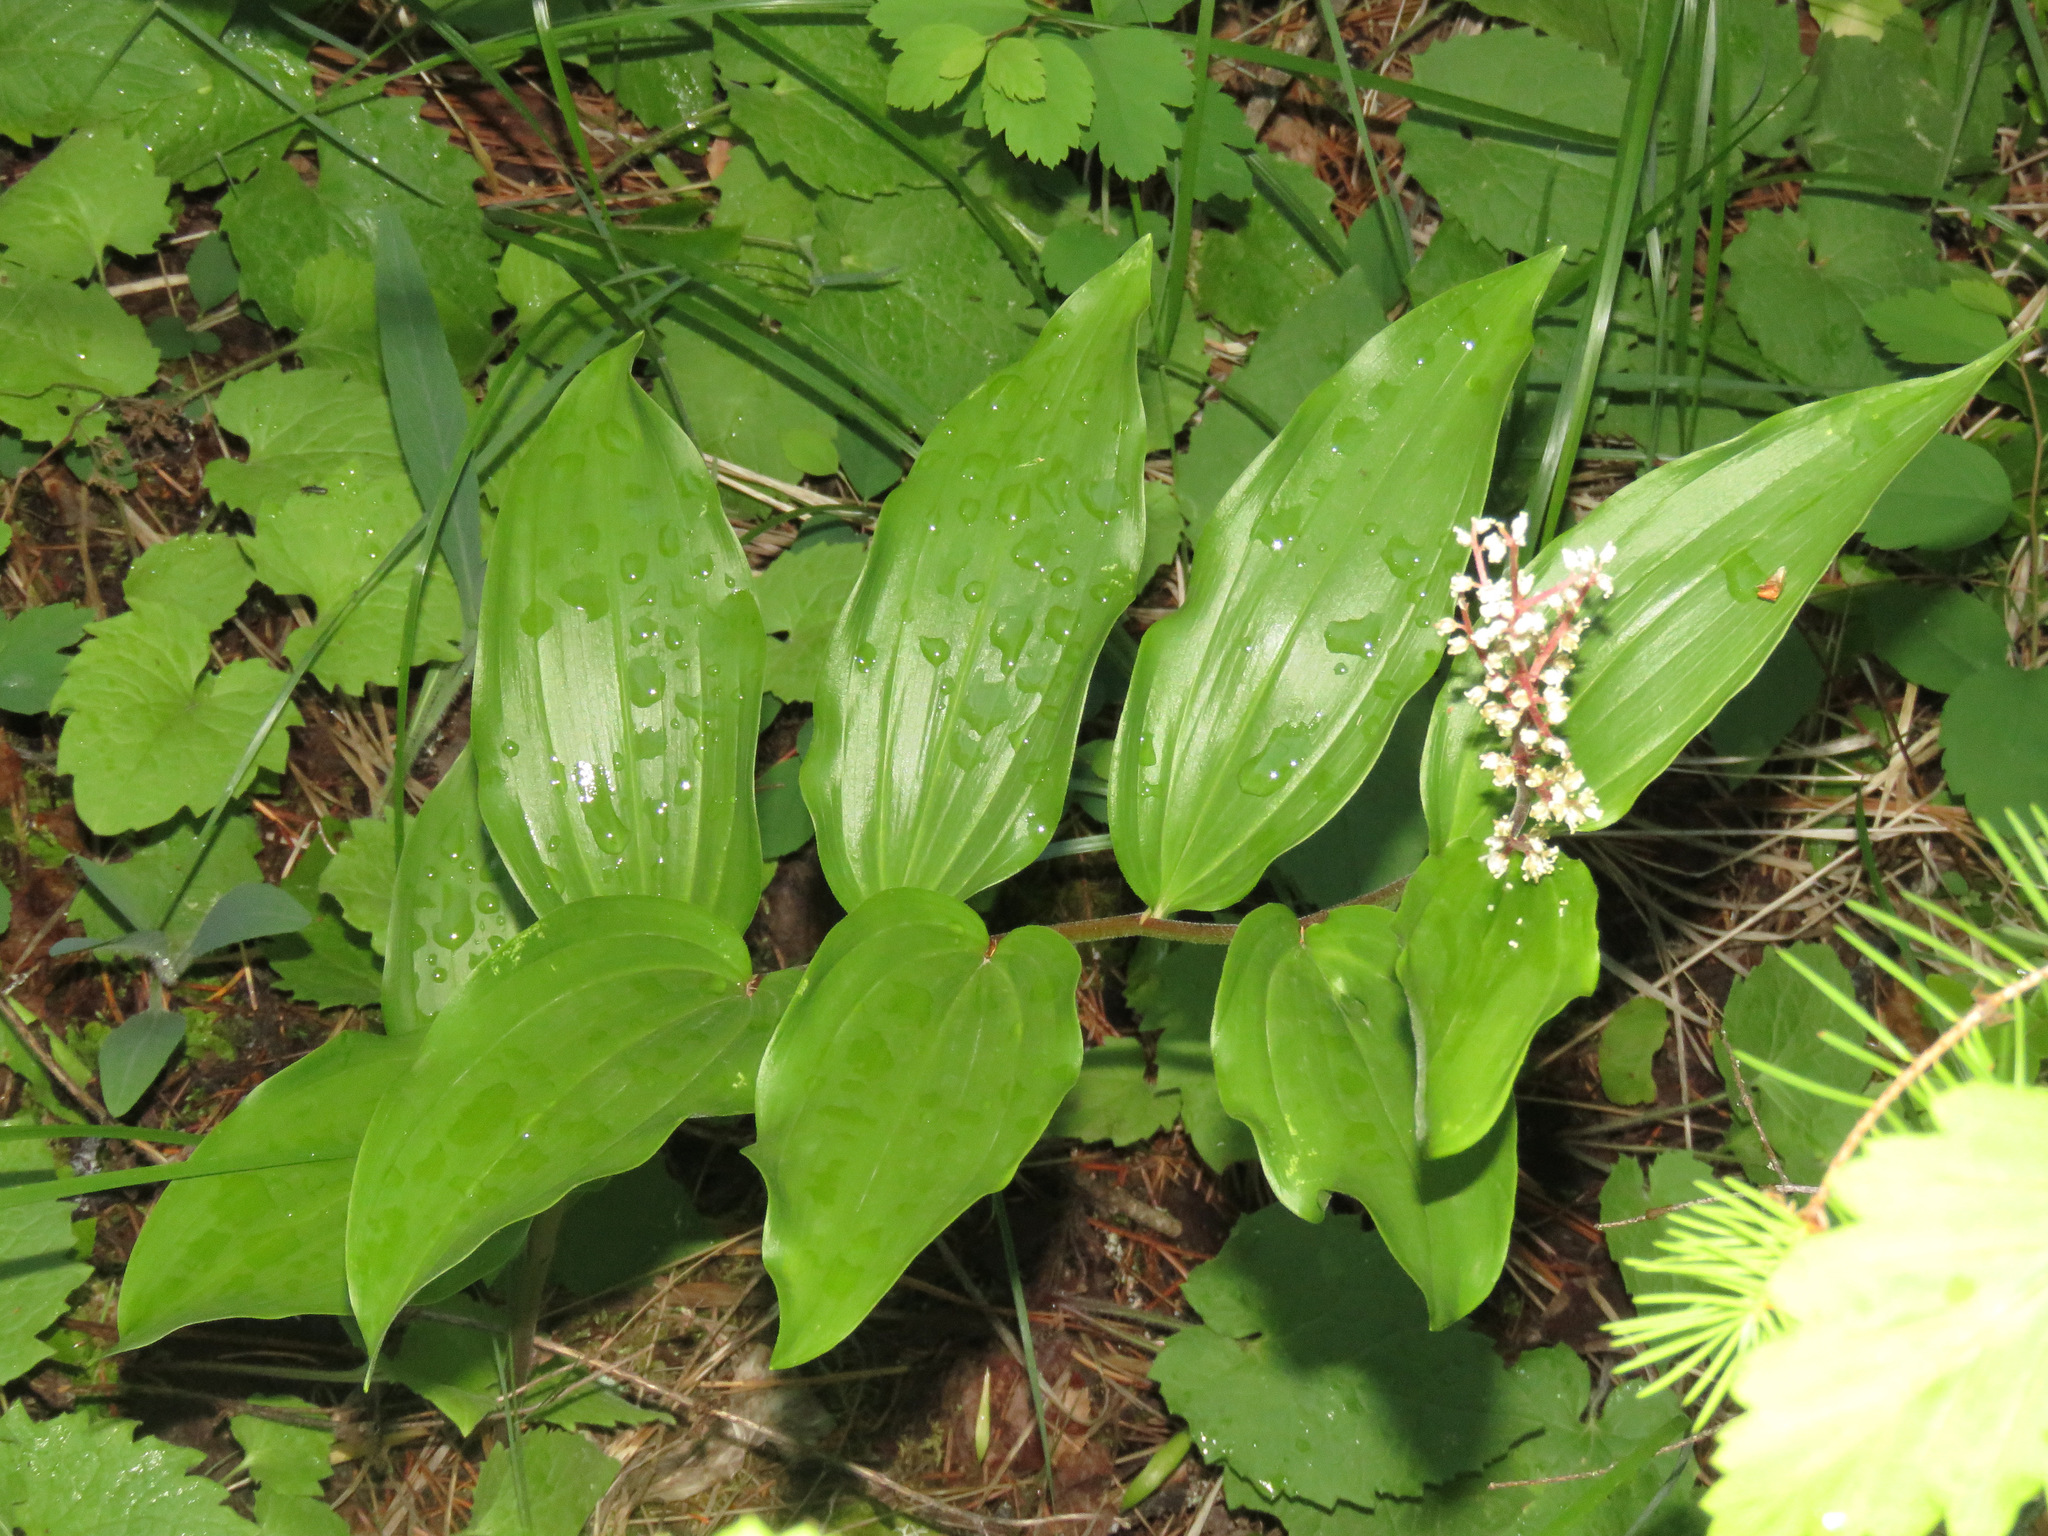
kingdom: Plantae
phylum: Tracheophyta
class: Liliopsida
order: Asparagales
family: Asparagaceae
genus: Maianthemum
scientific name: Maianthemum racemosum
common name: False spikenard
